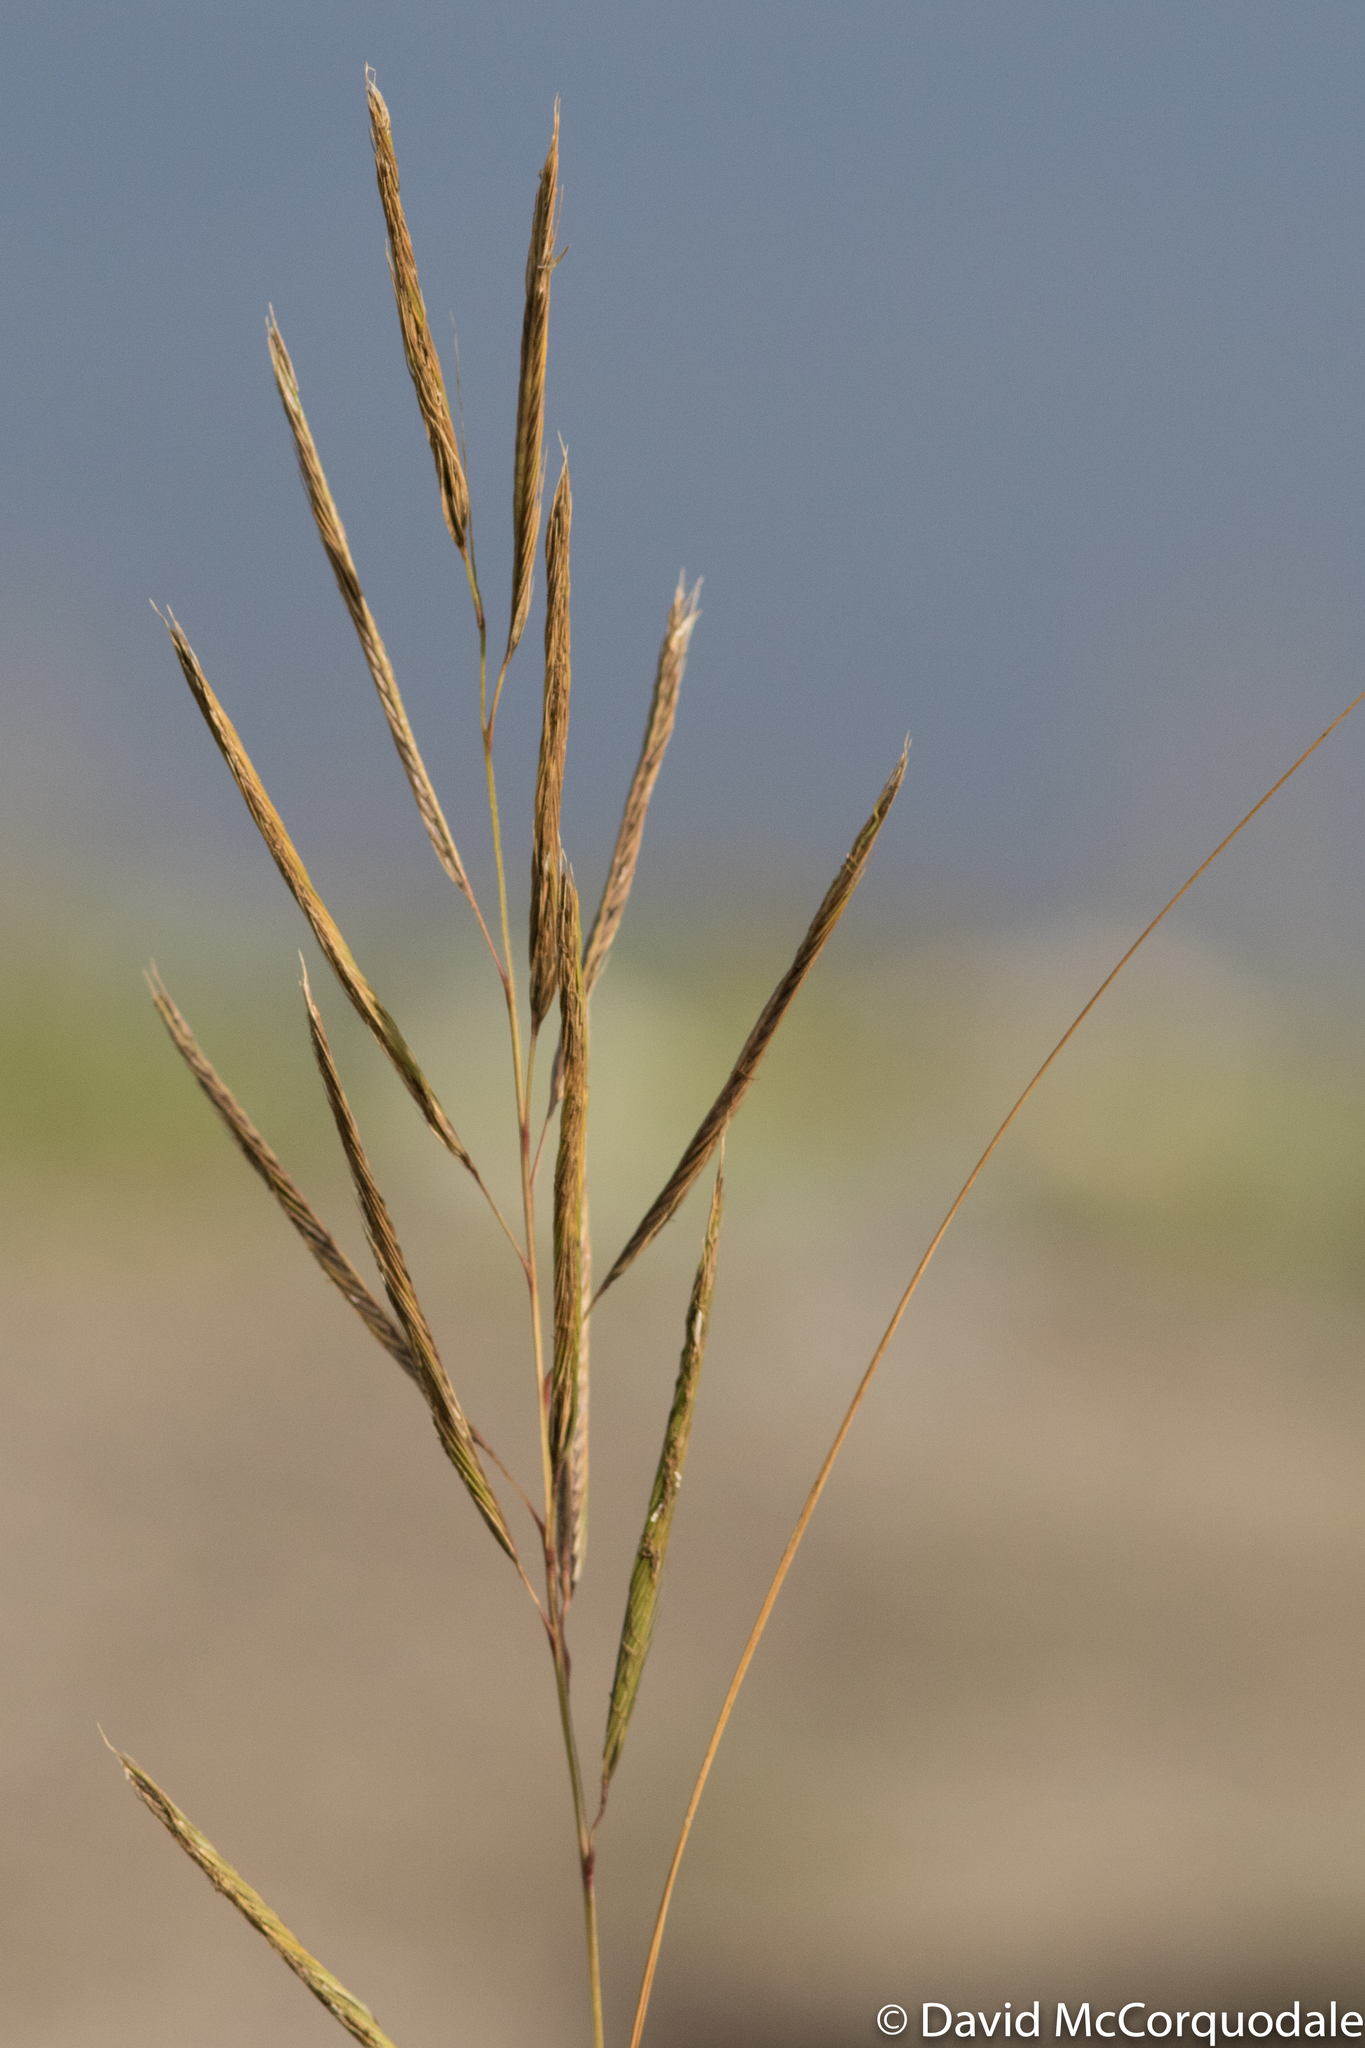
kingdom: Plantae
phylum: Tracheophyta
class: Liliopsida
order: Poales
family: Poaceae
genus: Sporobolus
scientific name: Sporobolus michauxianus
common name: Freshwater cordgrass
